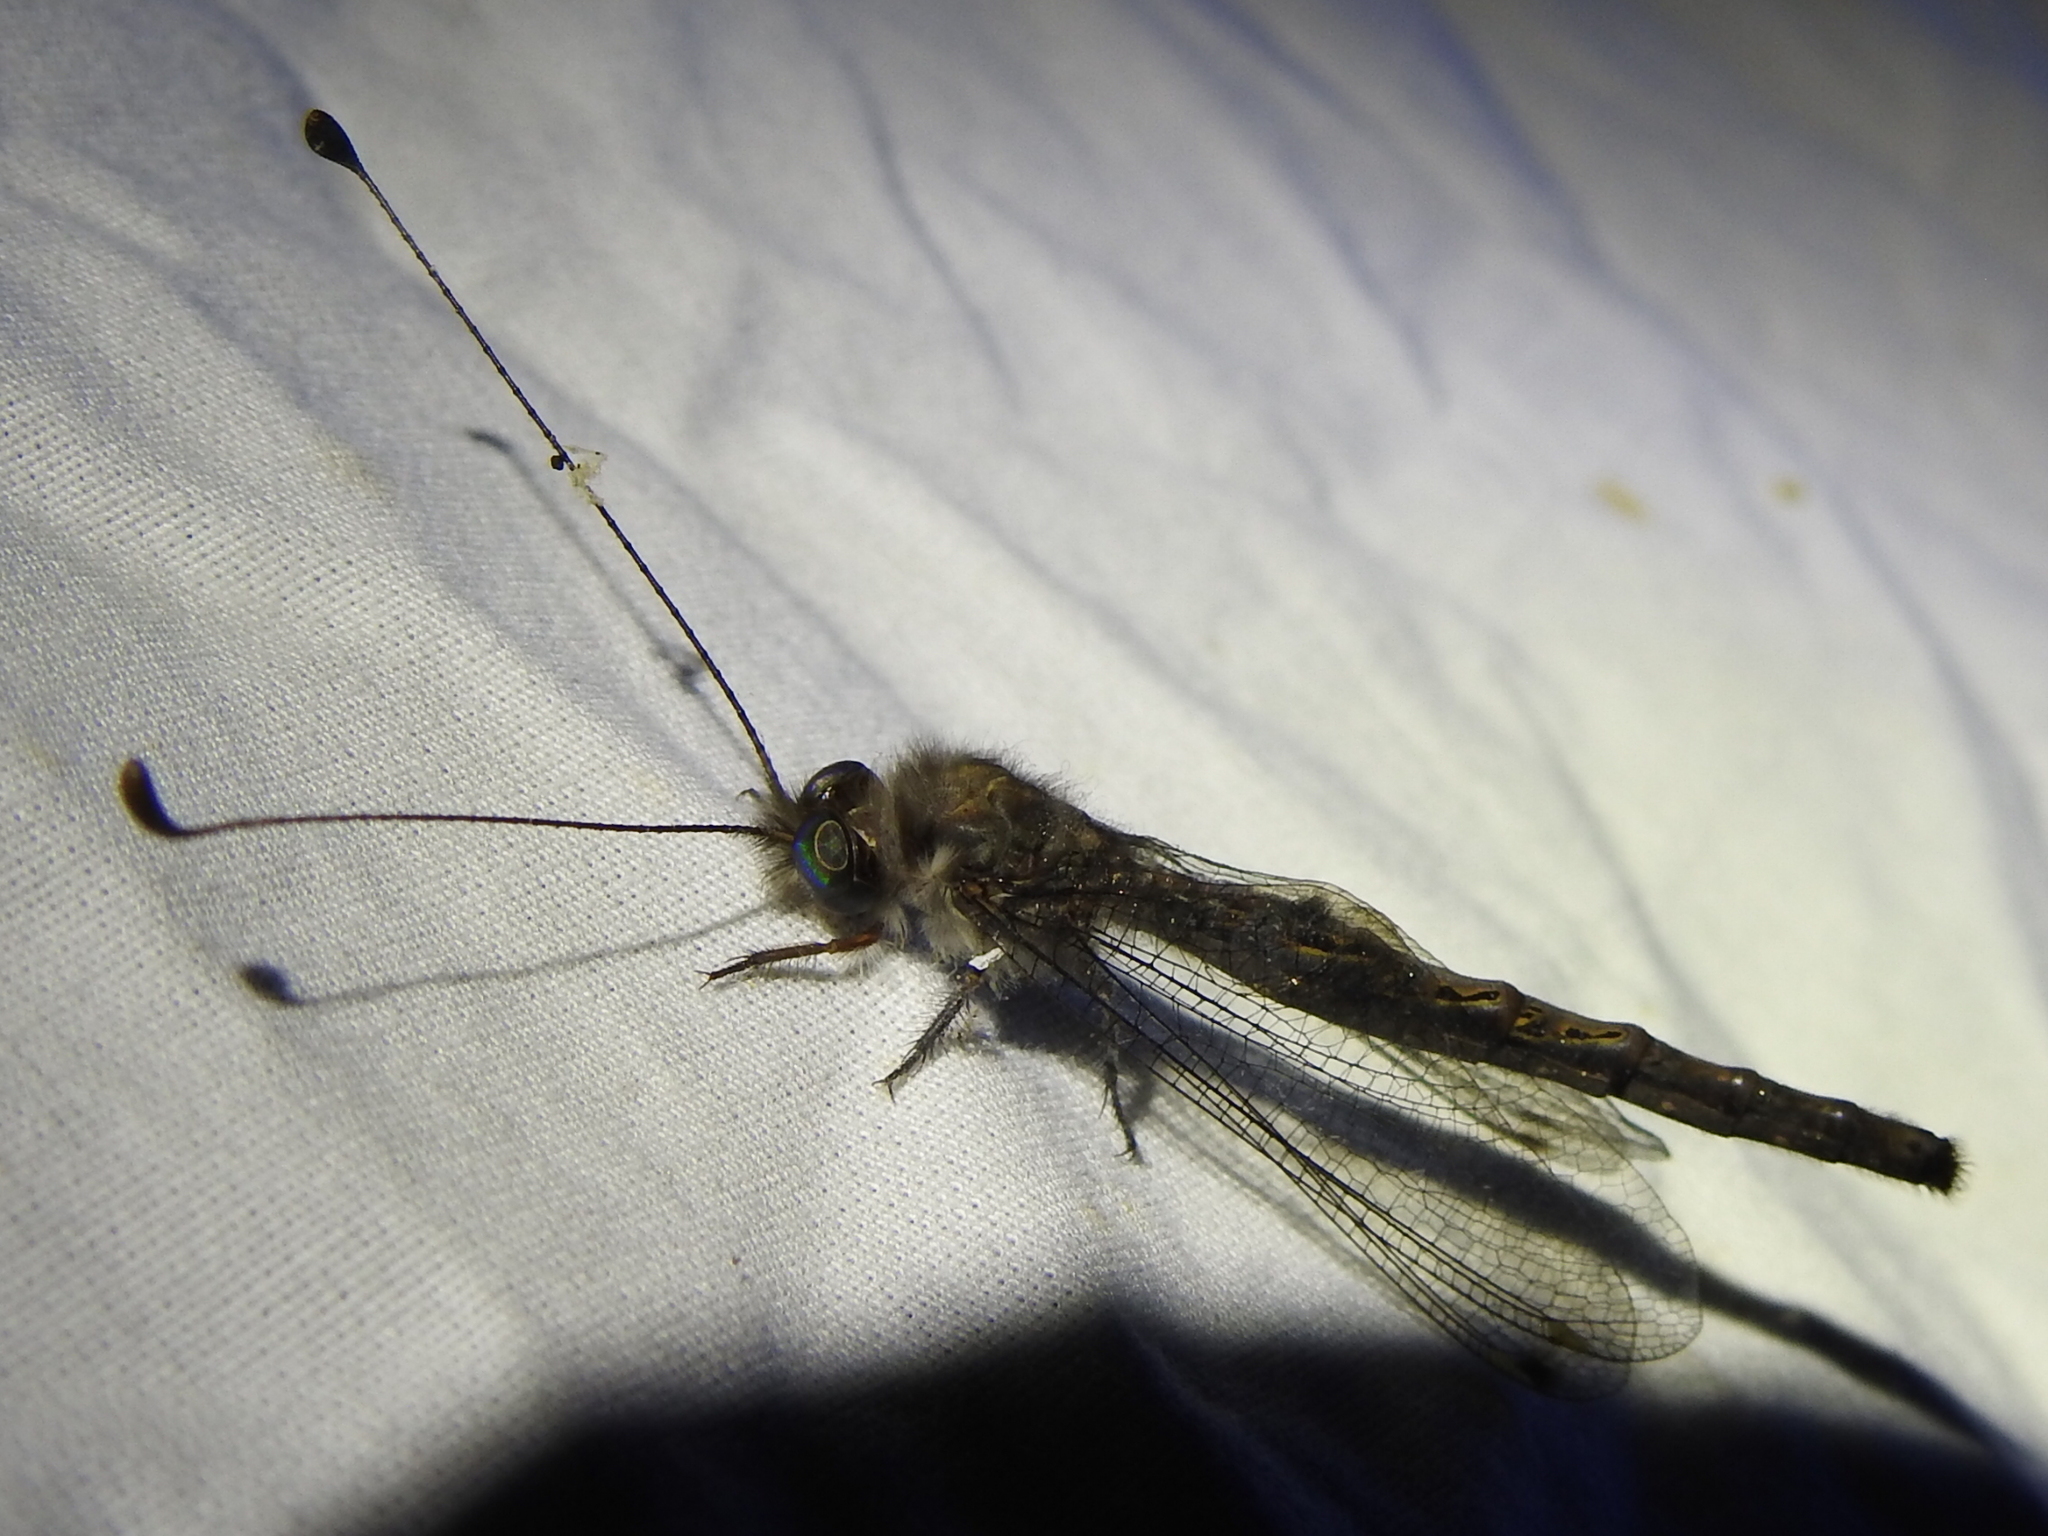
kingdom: Animalia
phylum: Arthropoda
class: Insecta
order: Neuroptera
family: Ascalaphidae
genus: Ululodes
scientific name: Ululodes quadripunctatus
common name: Four-spotted owlfly
